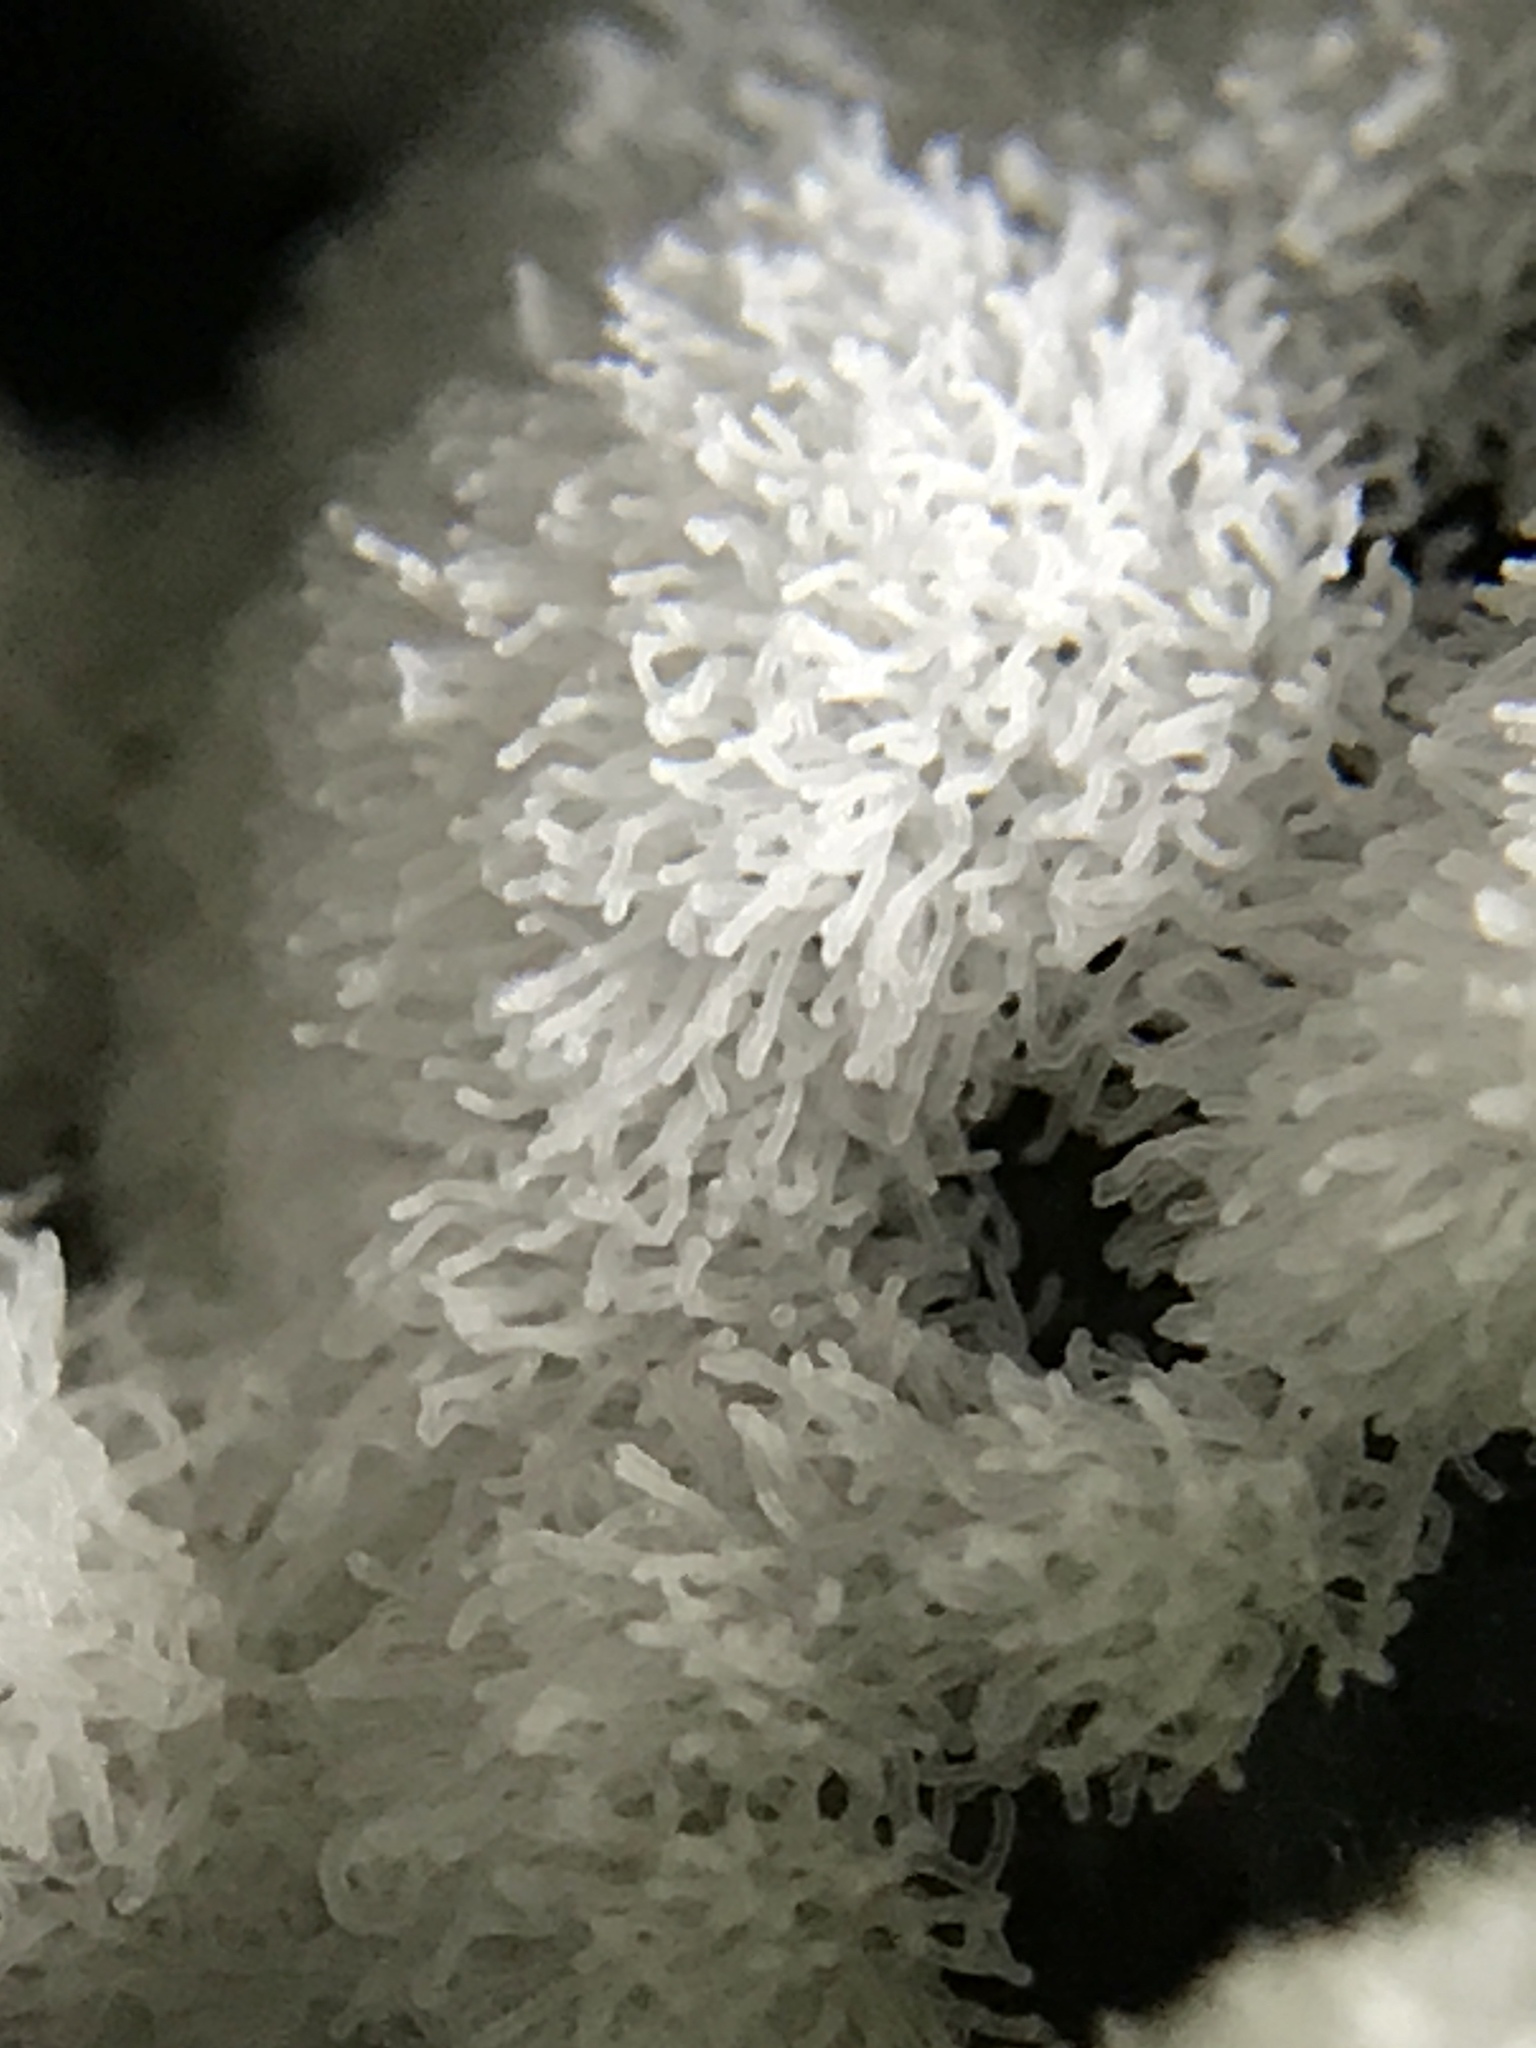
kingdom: Protozoa
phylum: Mycetozoa
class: Protosteliomycetes
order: Ceratiomyxales
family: Ceratiomyxaceae
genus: Ceratiomyxa
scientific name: Ceratiomyxa fruticulosa
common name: Honeycomb coral slime mold
